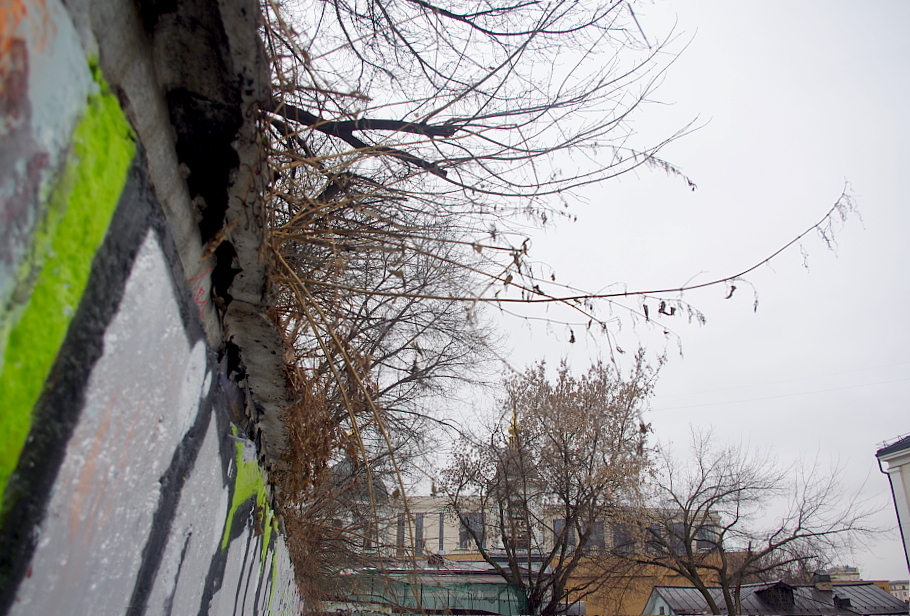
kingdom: Plantae
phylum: Tracheophyta
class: Magnoliopsida
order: Rosales
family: Urticaceae
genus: Urtica
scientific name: Urtica dioica
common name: Common nettle
